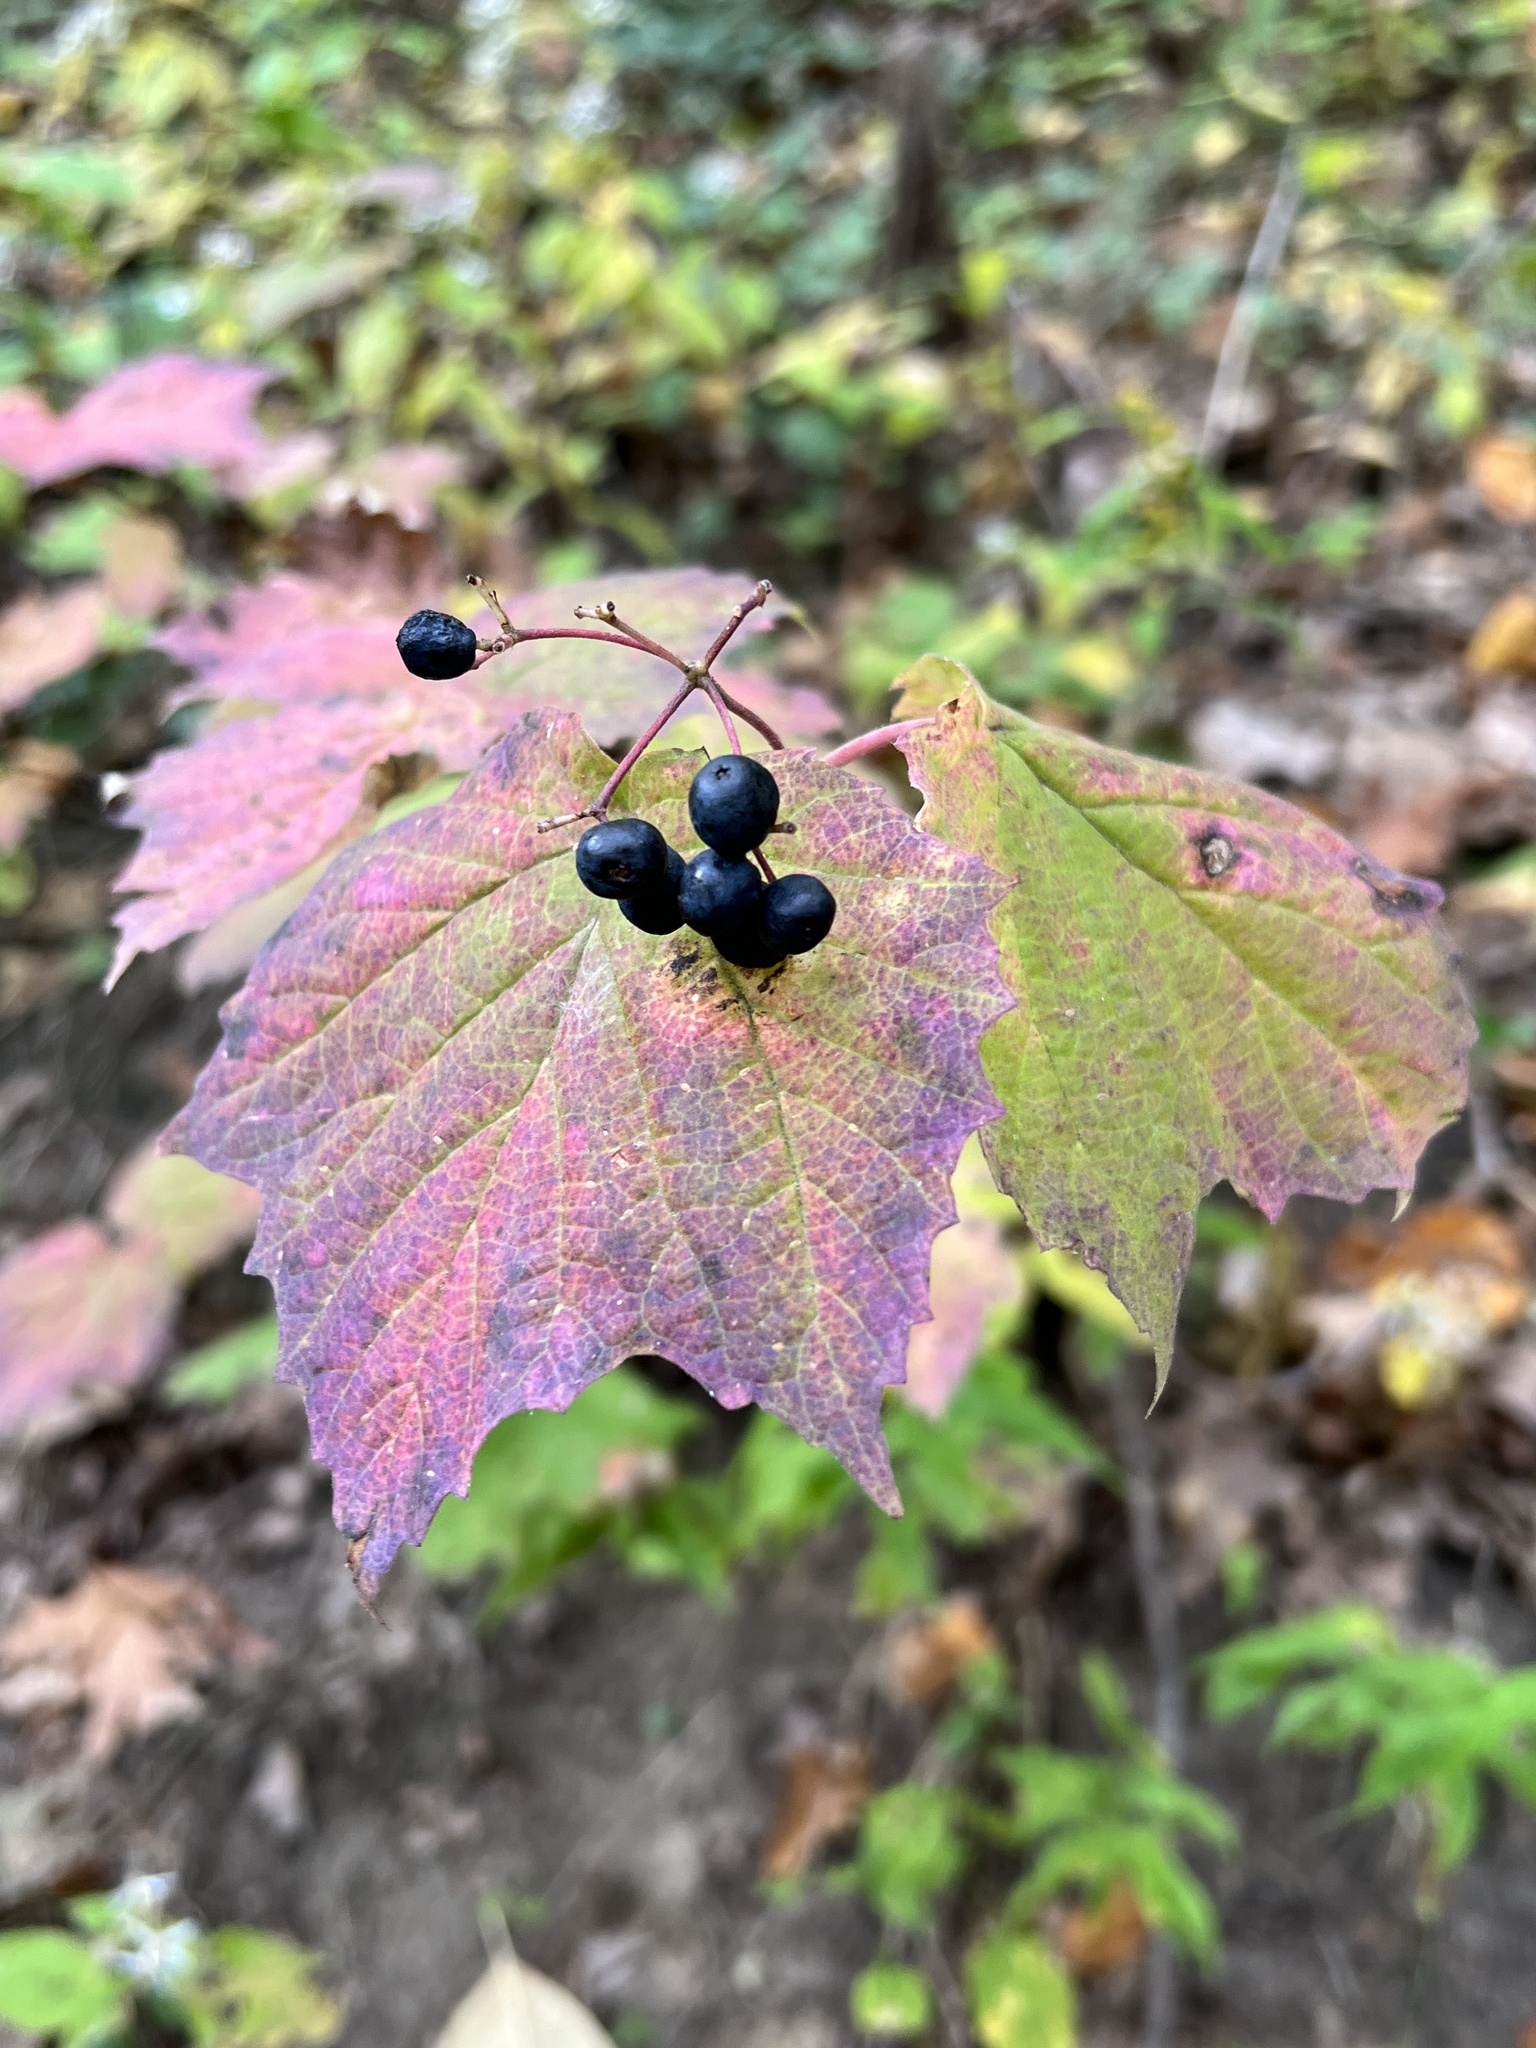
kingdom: Plantae
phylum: Tracheophyta
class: Magnoliopsida
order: Dipsacales
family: Viburnaceae
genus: Viburnum
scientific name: Viburnum acerifolium
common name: Dockmackie
